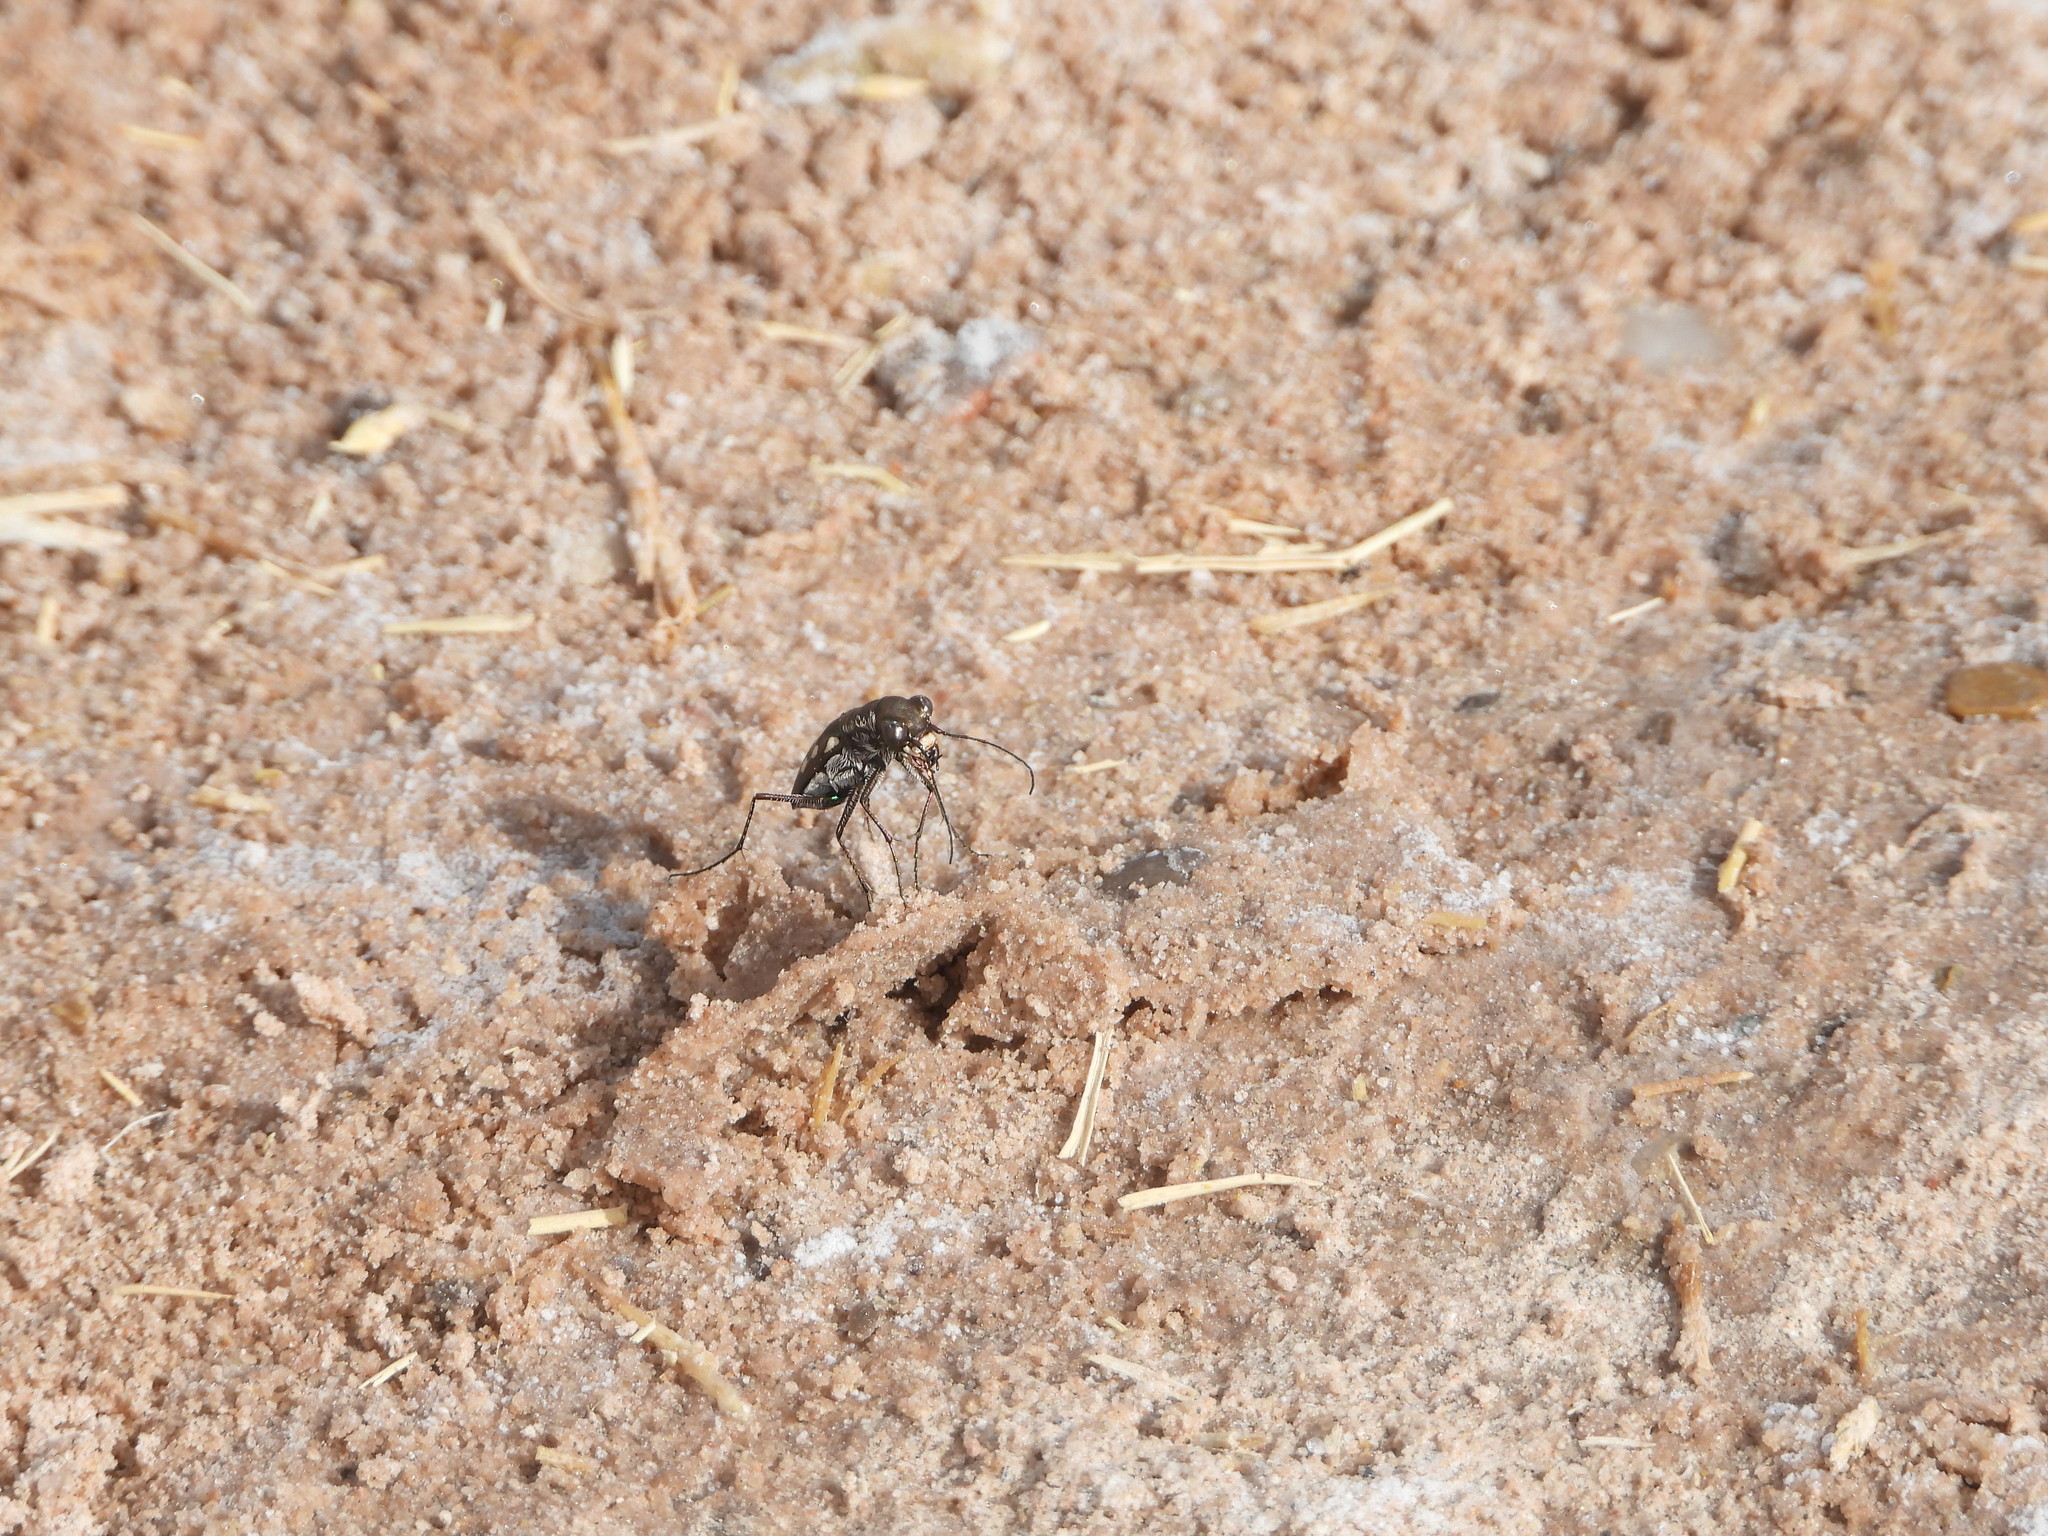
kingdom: Animalia
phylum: Arthropoda
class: Insecta
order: Coleoptera
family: Carabidae
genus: Cicindela
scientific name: Cicindela ocellata
